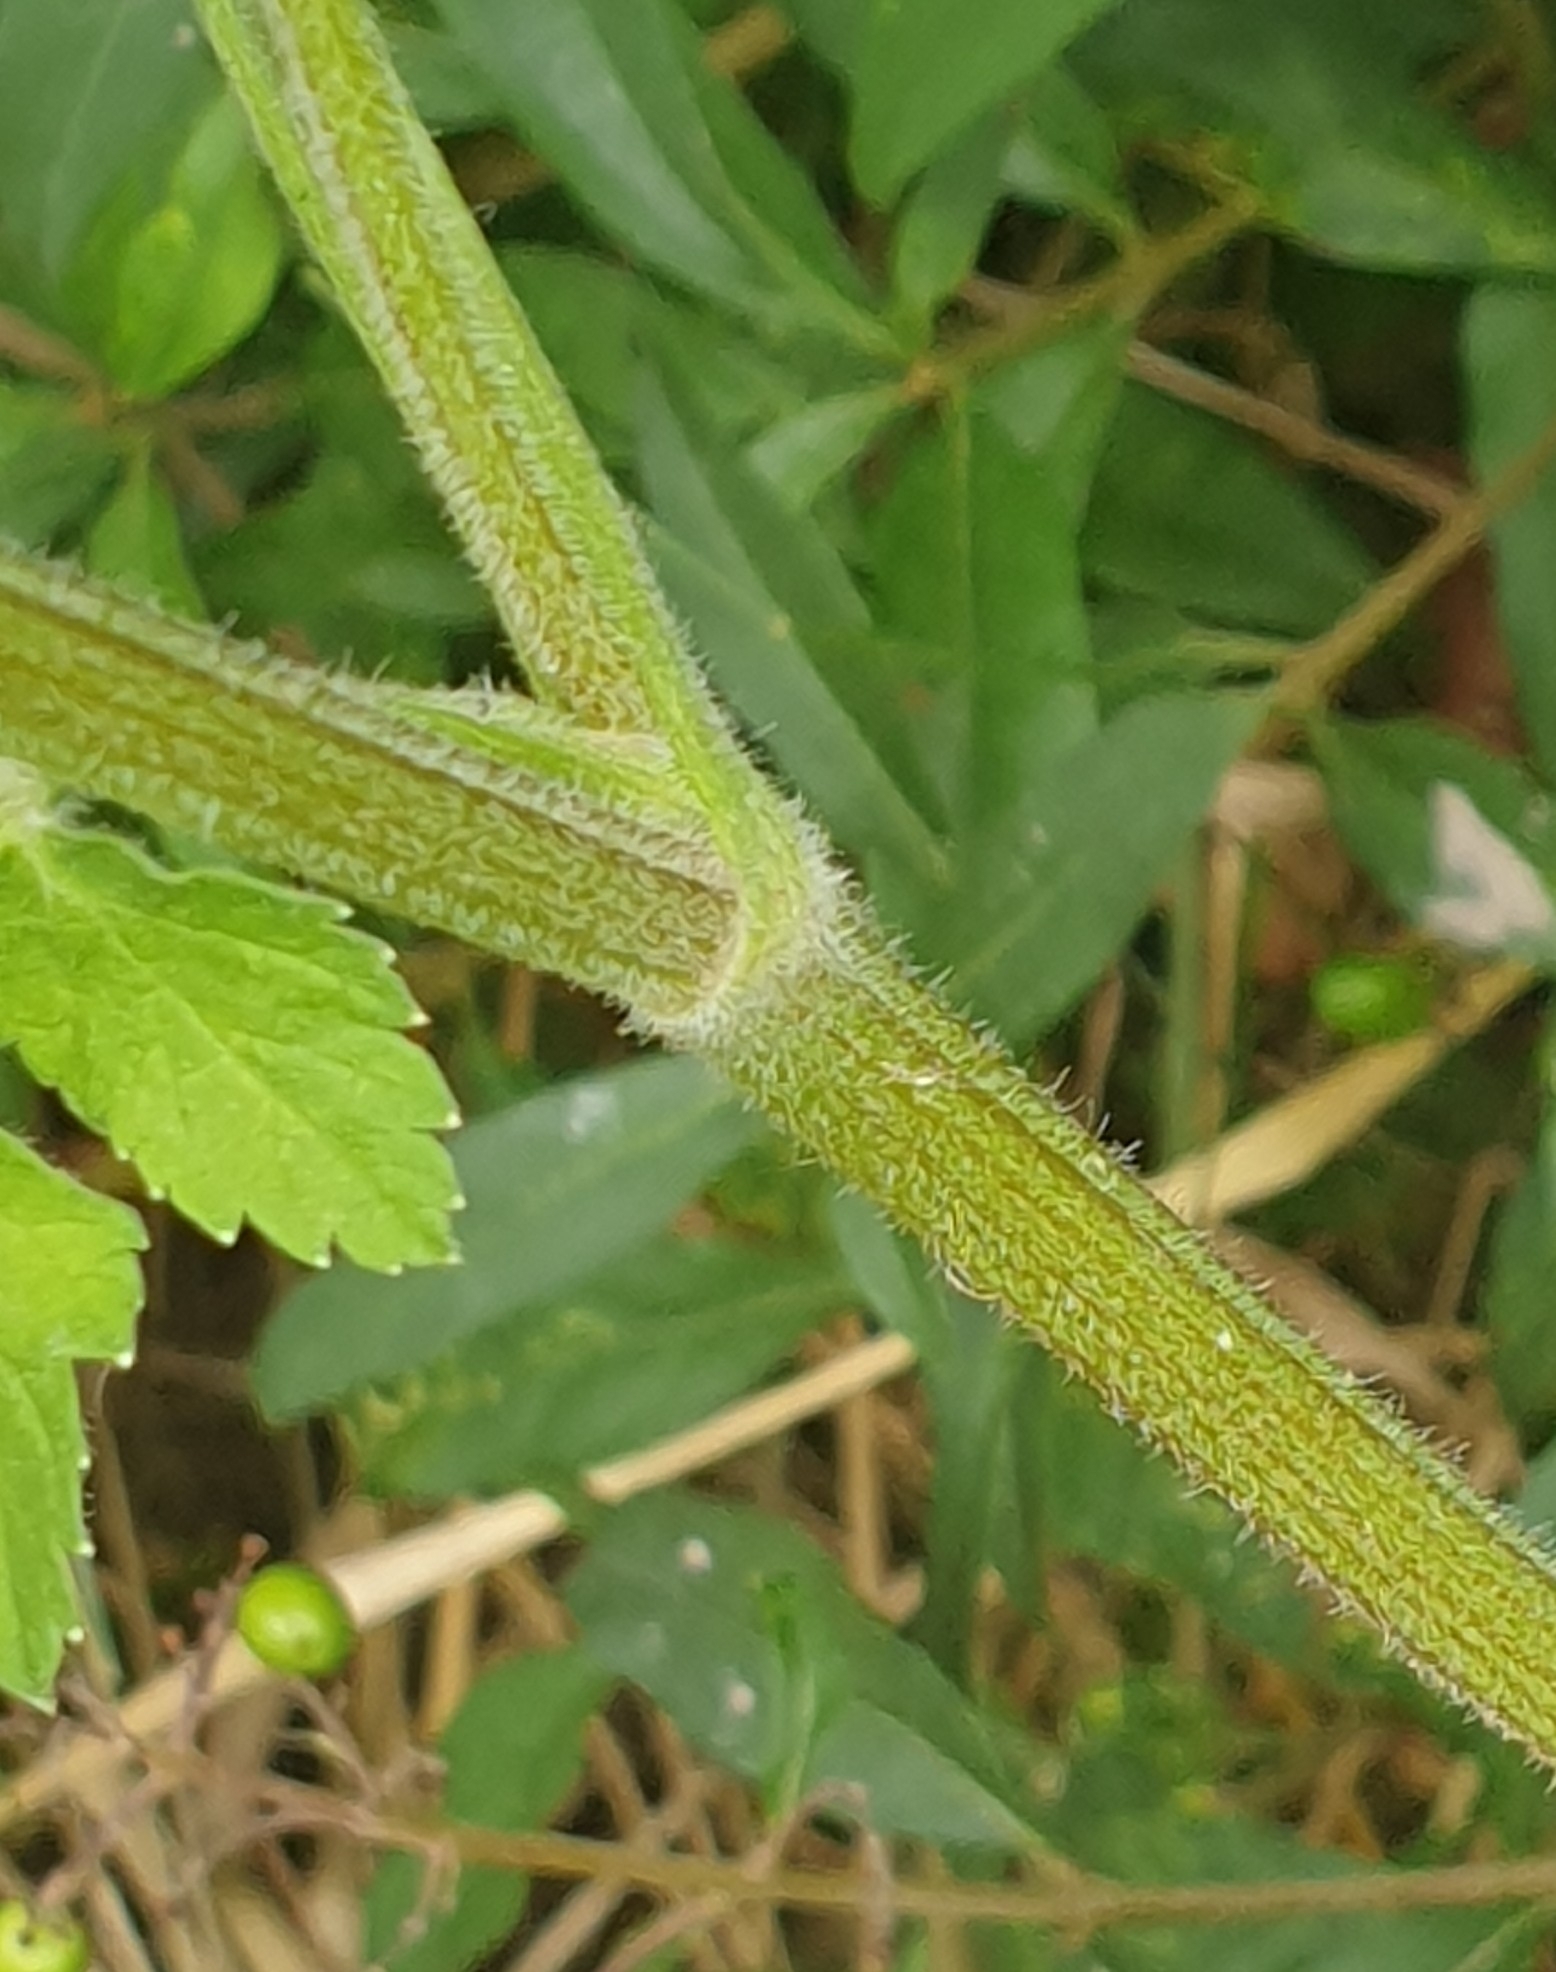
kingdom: Plantae
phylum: Tracheophyta
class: Magnoliopsida
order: Apiales
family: Apiaceae
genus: Pastinaca
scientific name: Pastinaca sativa
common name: Wild parsnip
